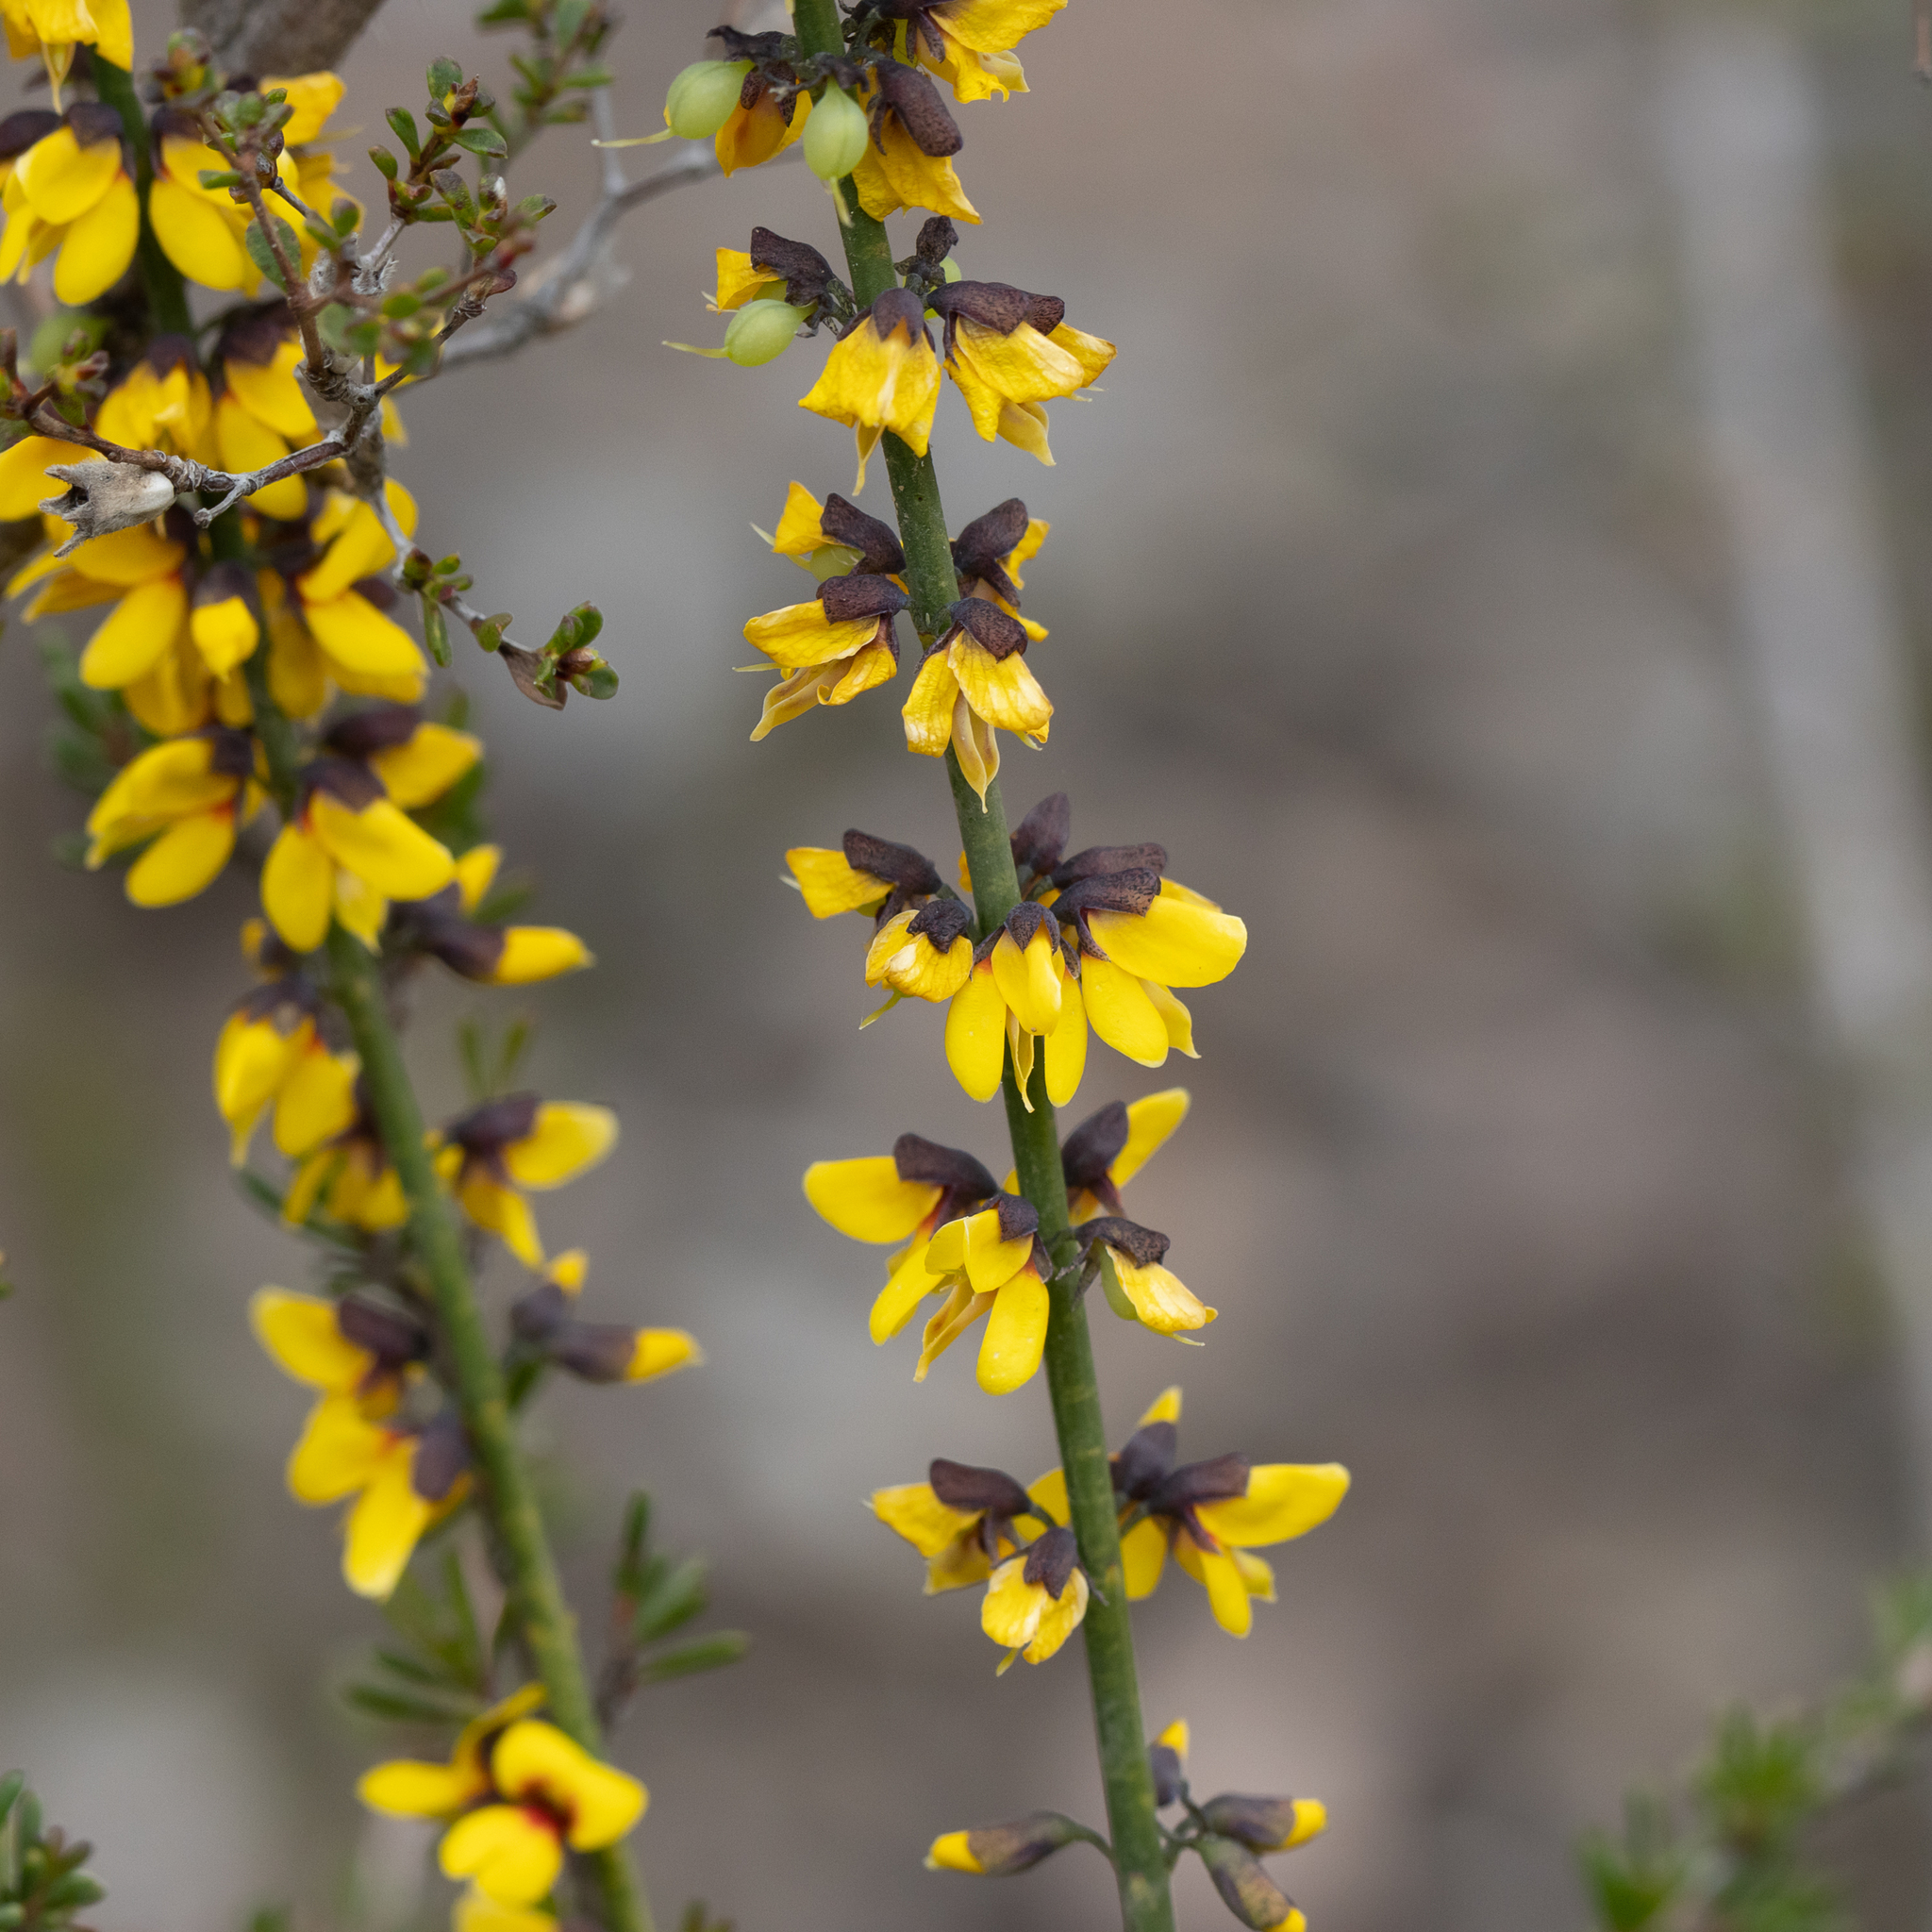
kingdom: Plantae
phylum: Tracheophyta
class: Magnoliopsida
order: Fabales
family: Fabaceae
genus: Sphaerolobium
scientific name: Sphaerolobium medium
